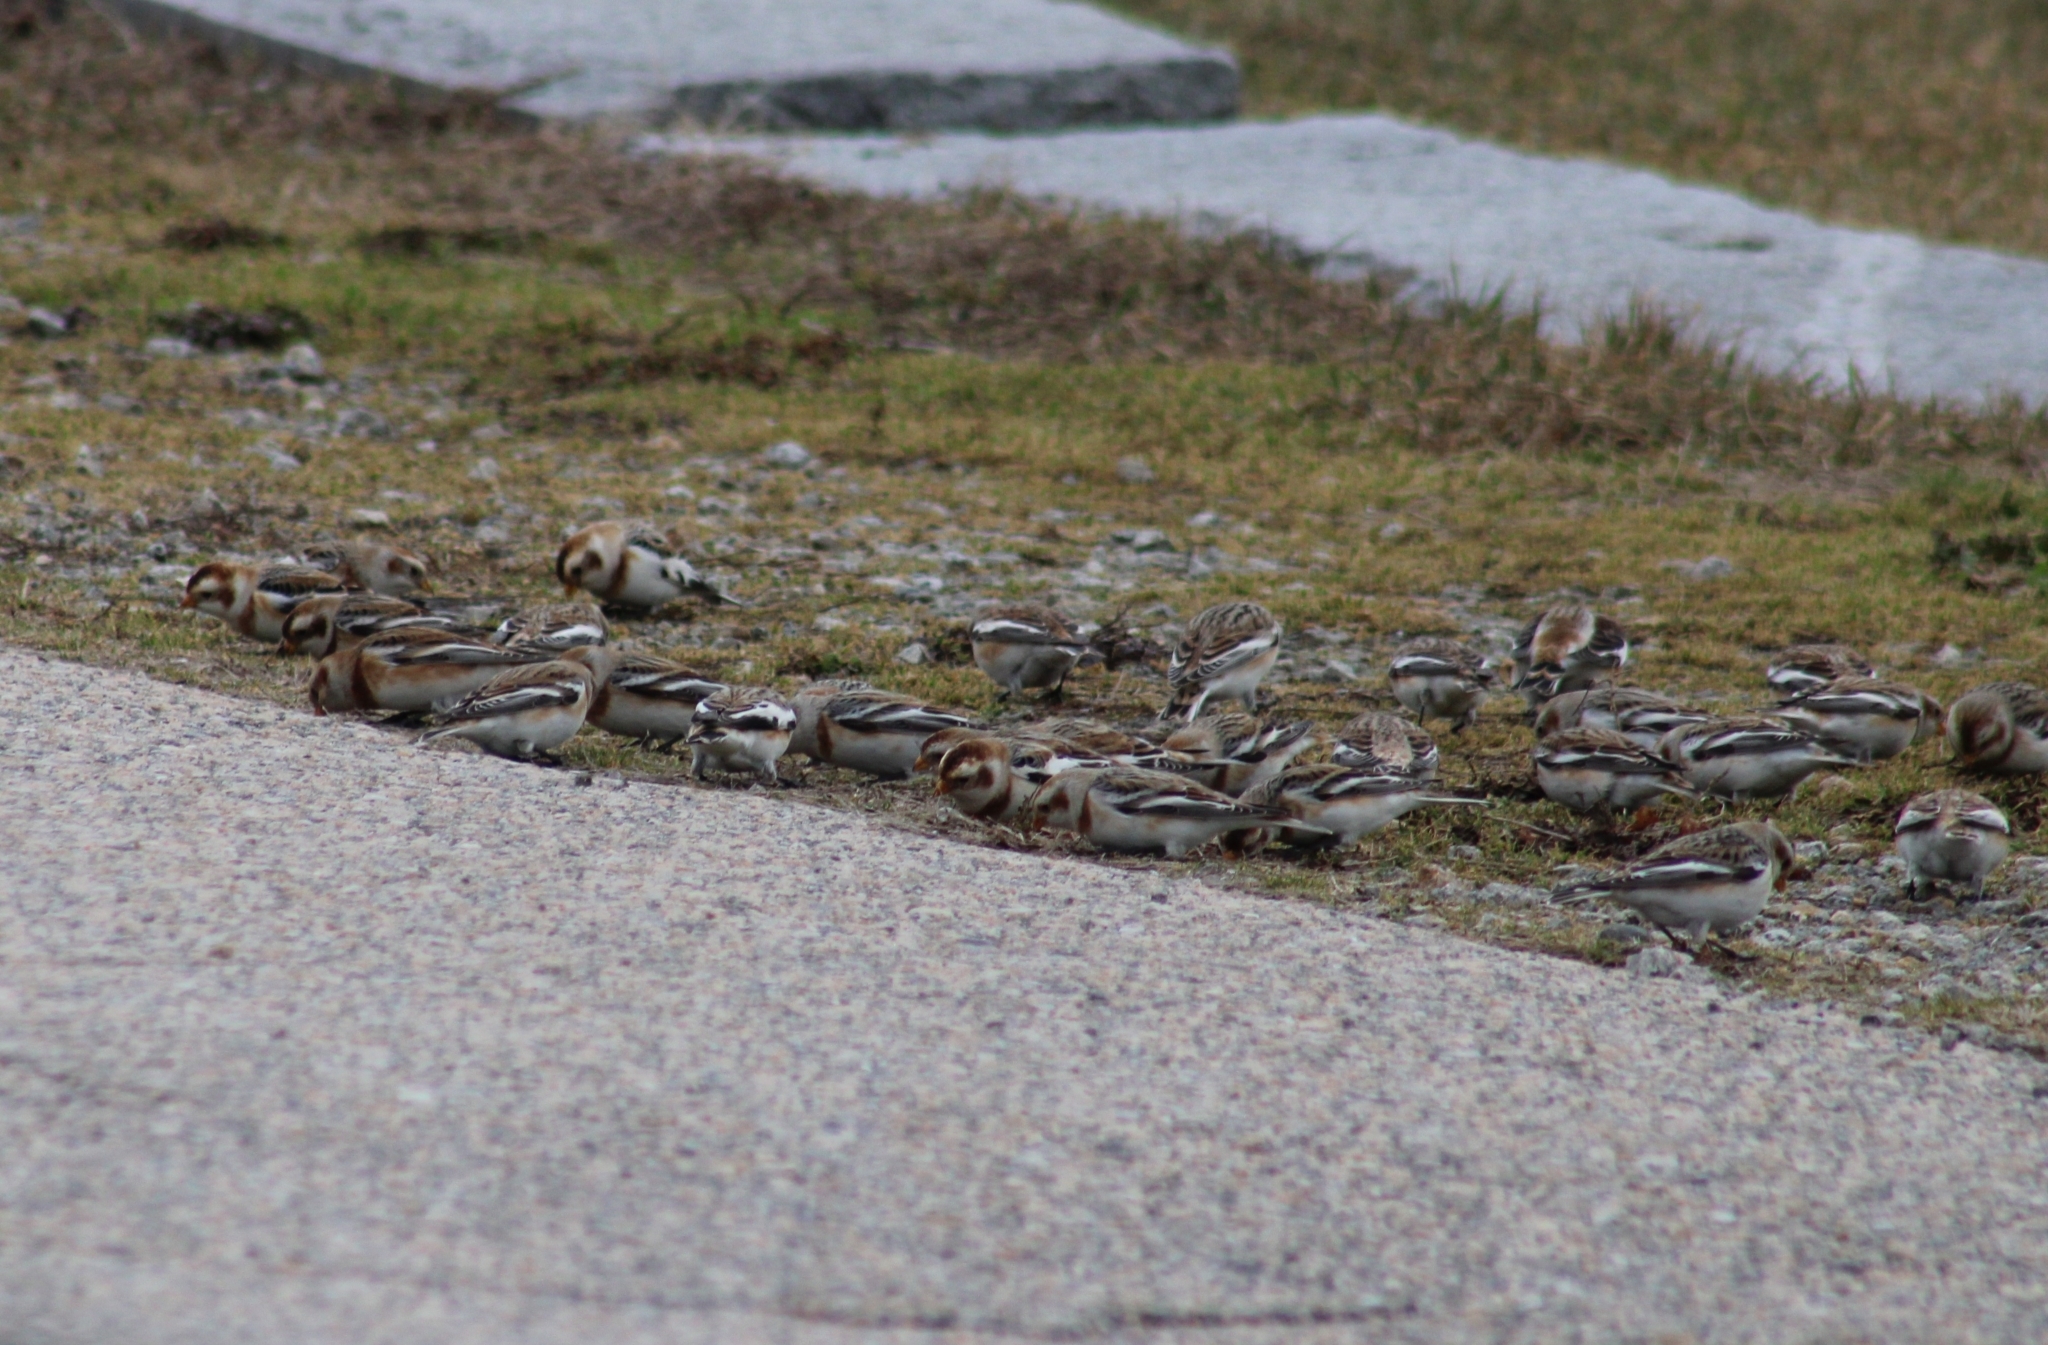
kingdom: Animalia
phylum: Chordata
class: Aves
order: Passeriformes
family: Calcariidae
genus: Plectrophenax
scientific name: Plectrophenax nivalis
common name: Snow bunting
